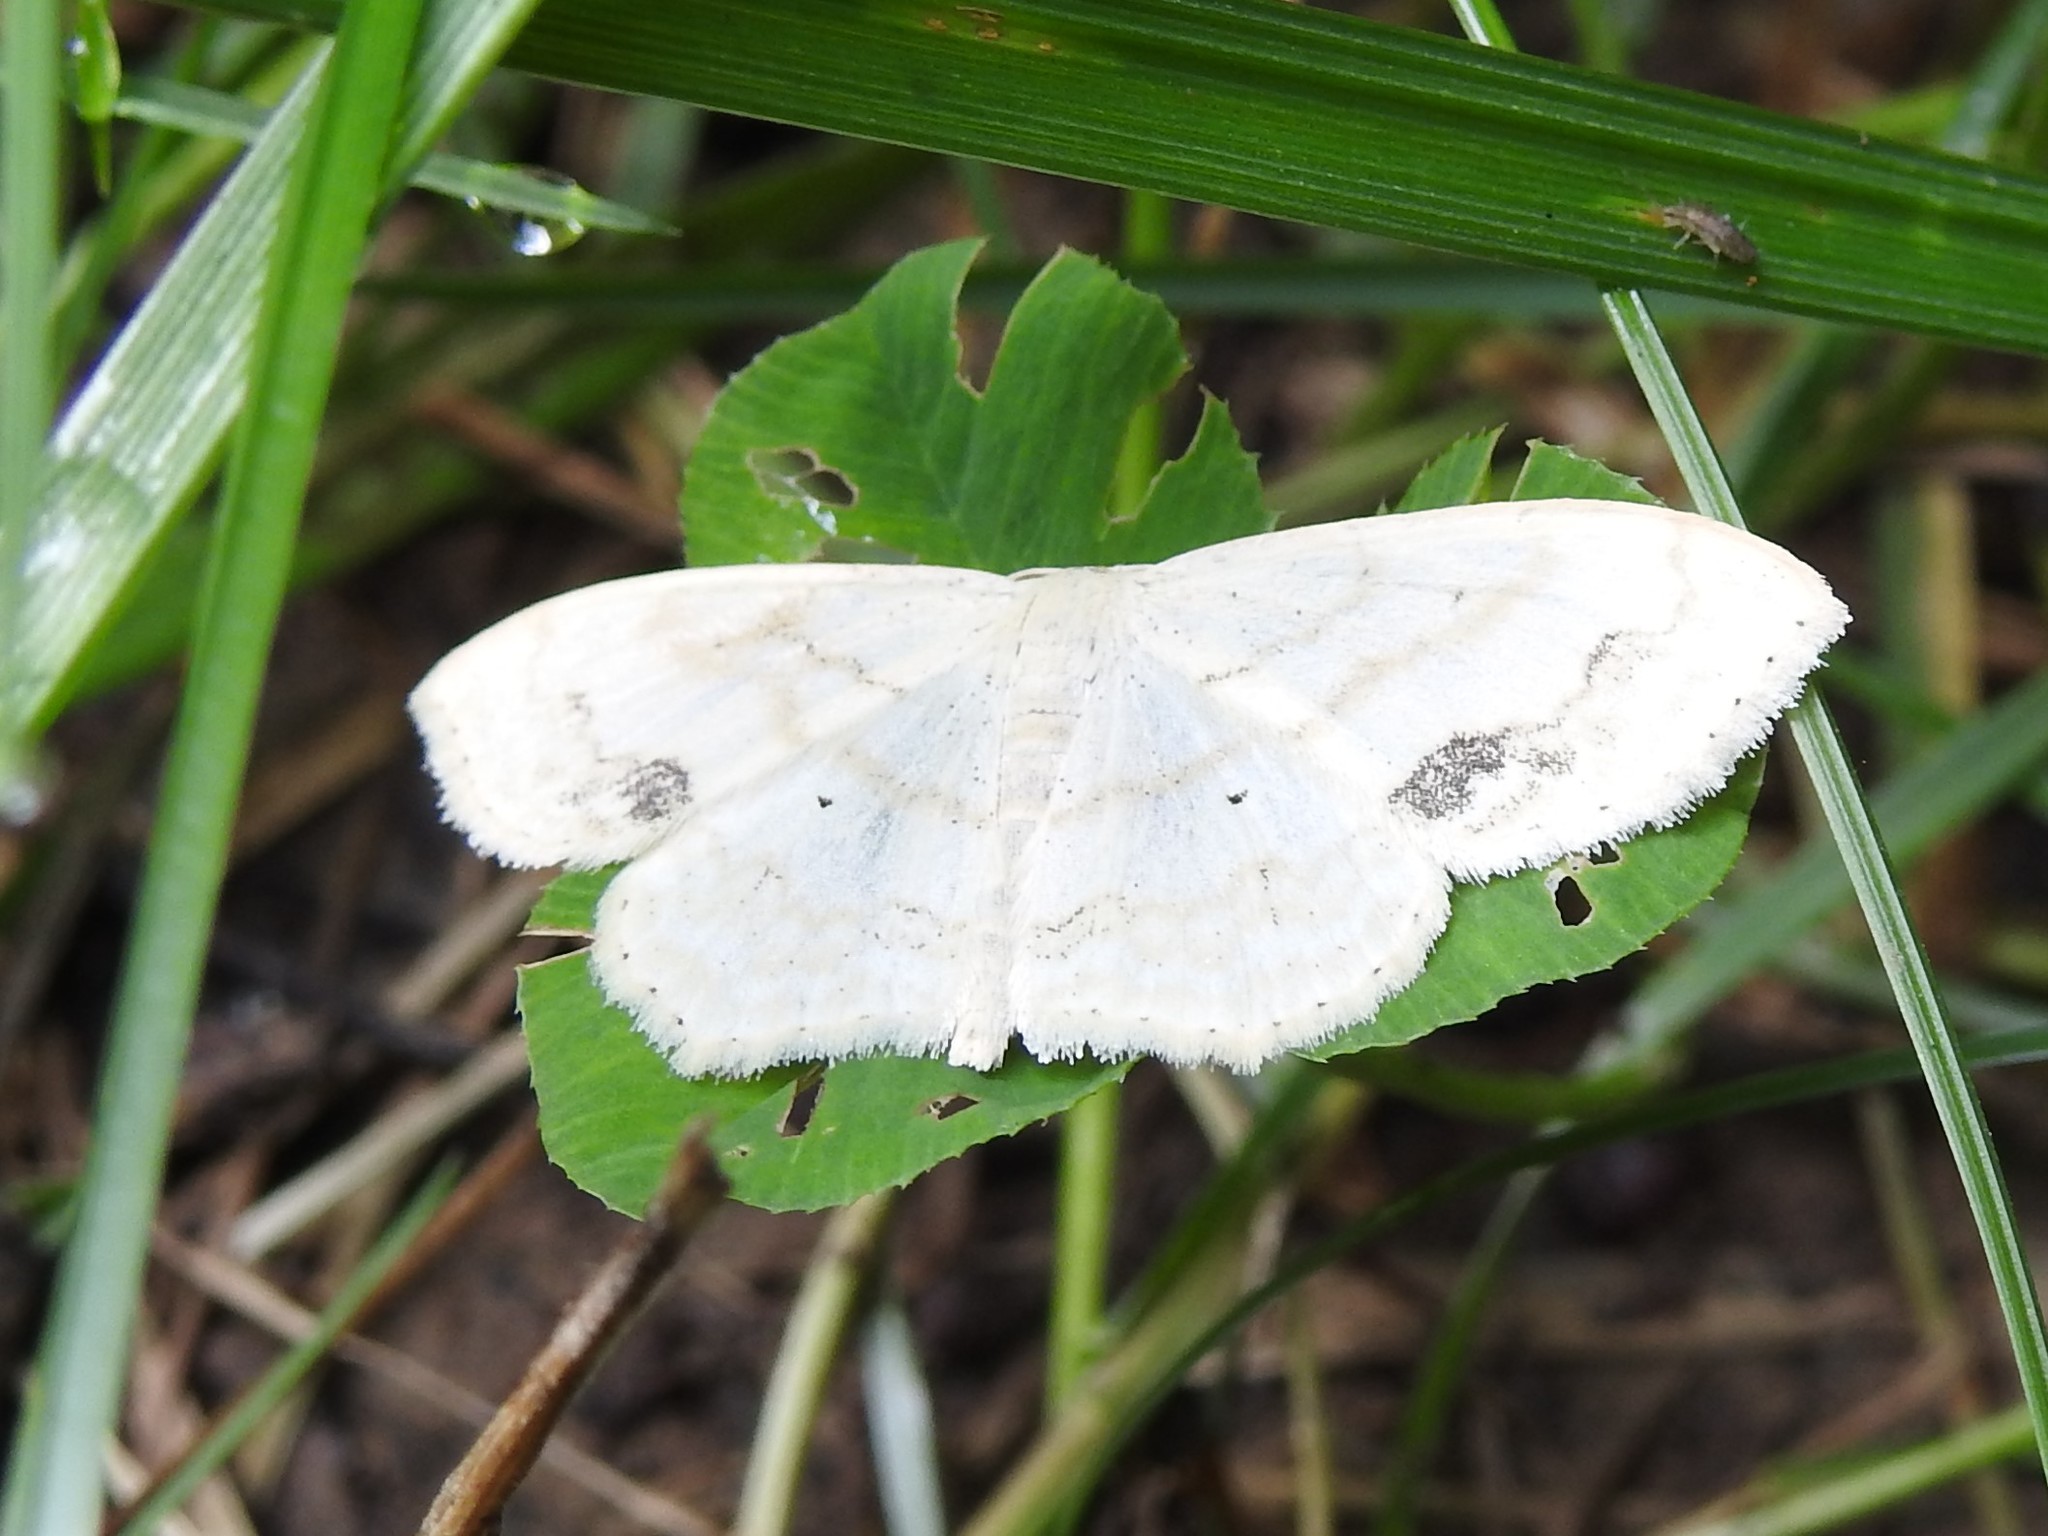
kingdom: Animalia
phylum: Arthropoda
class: Insecta
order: Lepidoptera
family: Geometridae
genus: Scopula
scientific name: Scopula limboundata
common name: Large lace border
